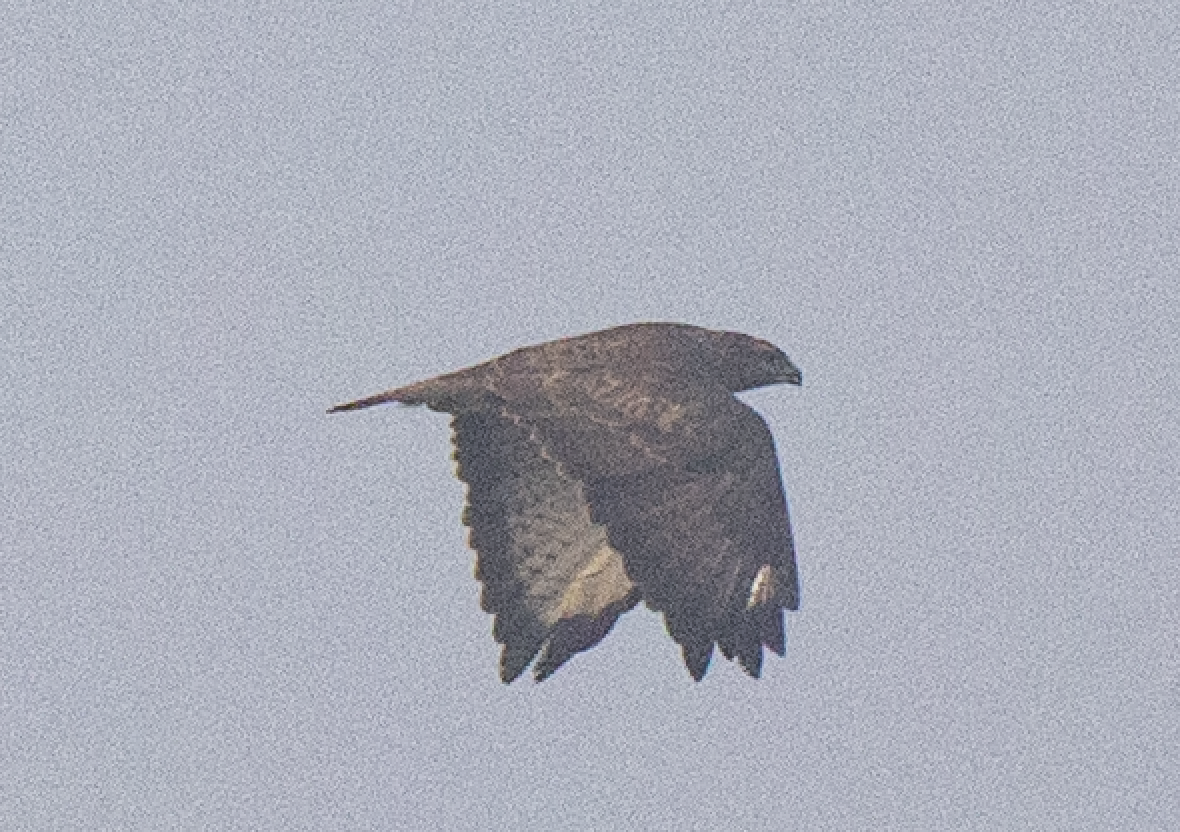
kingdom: Animalia
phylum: Chordata
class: Aves
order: Accipitriformes
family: Accipitridae
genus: Buteo
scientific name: Buteo buteo
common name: Common buzzard
